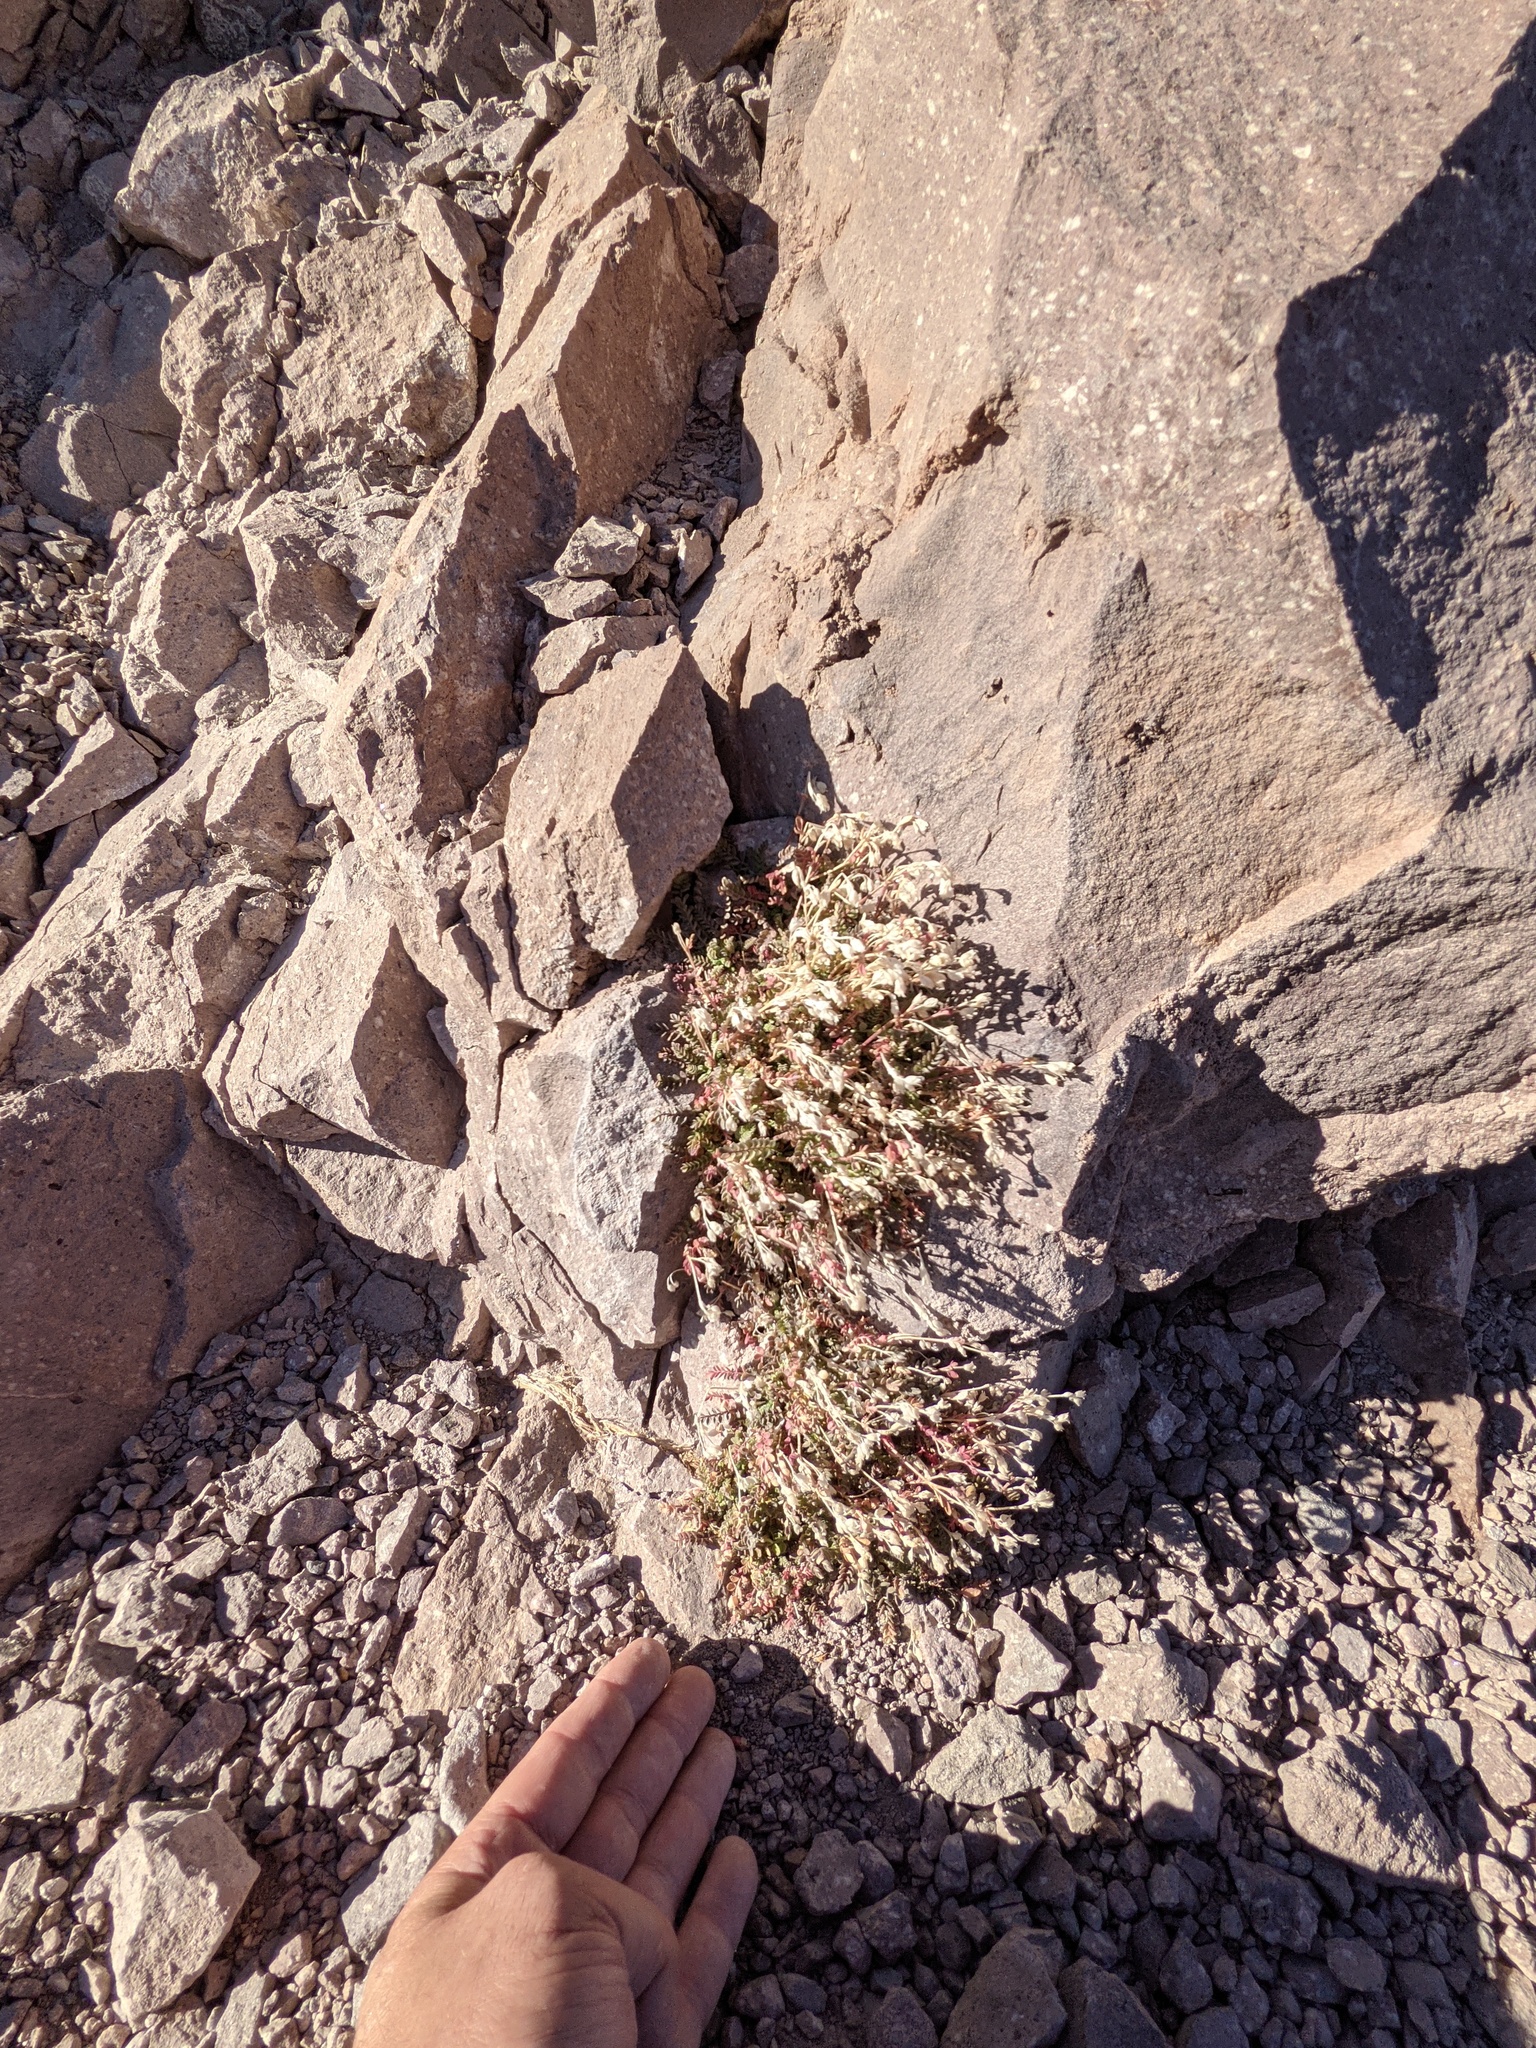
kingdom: Plantae
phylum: Tracheophyta
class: Magnoliopsida
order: Ericales
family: Polemoniaceae
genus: Polemonium
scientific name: Polemonium pulcherrimum
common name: Short jacob's-ladder
